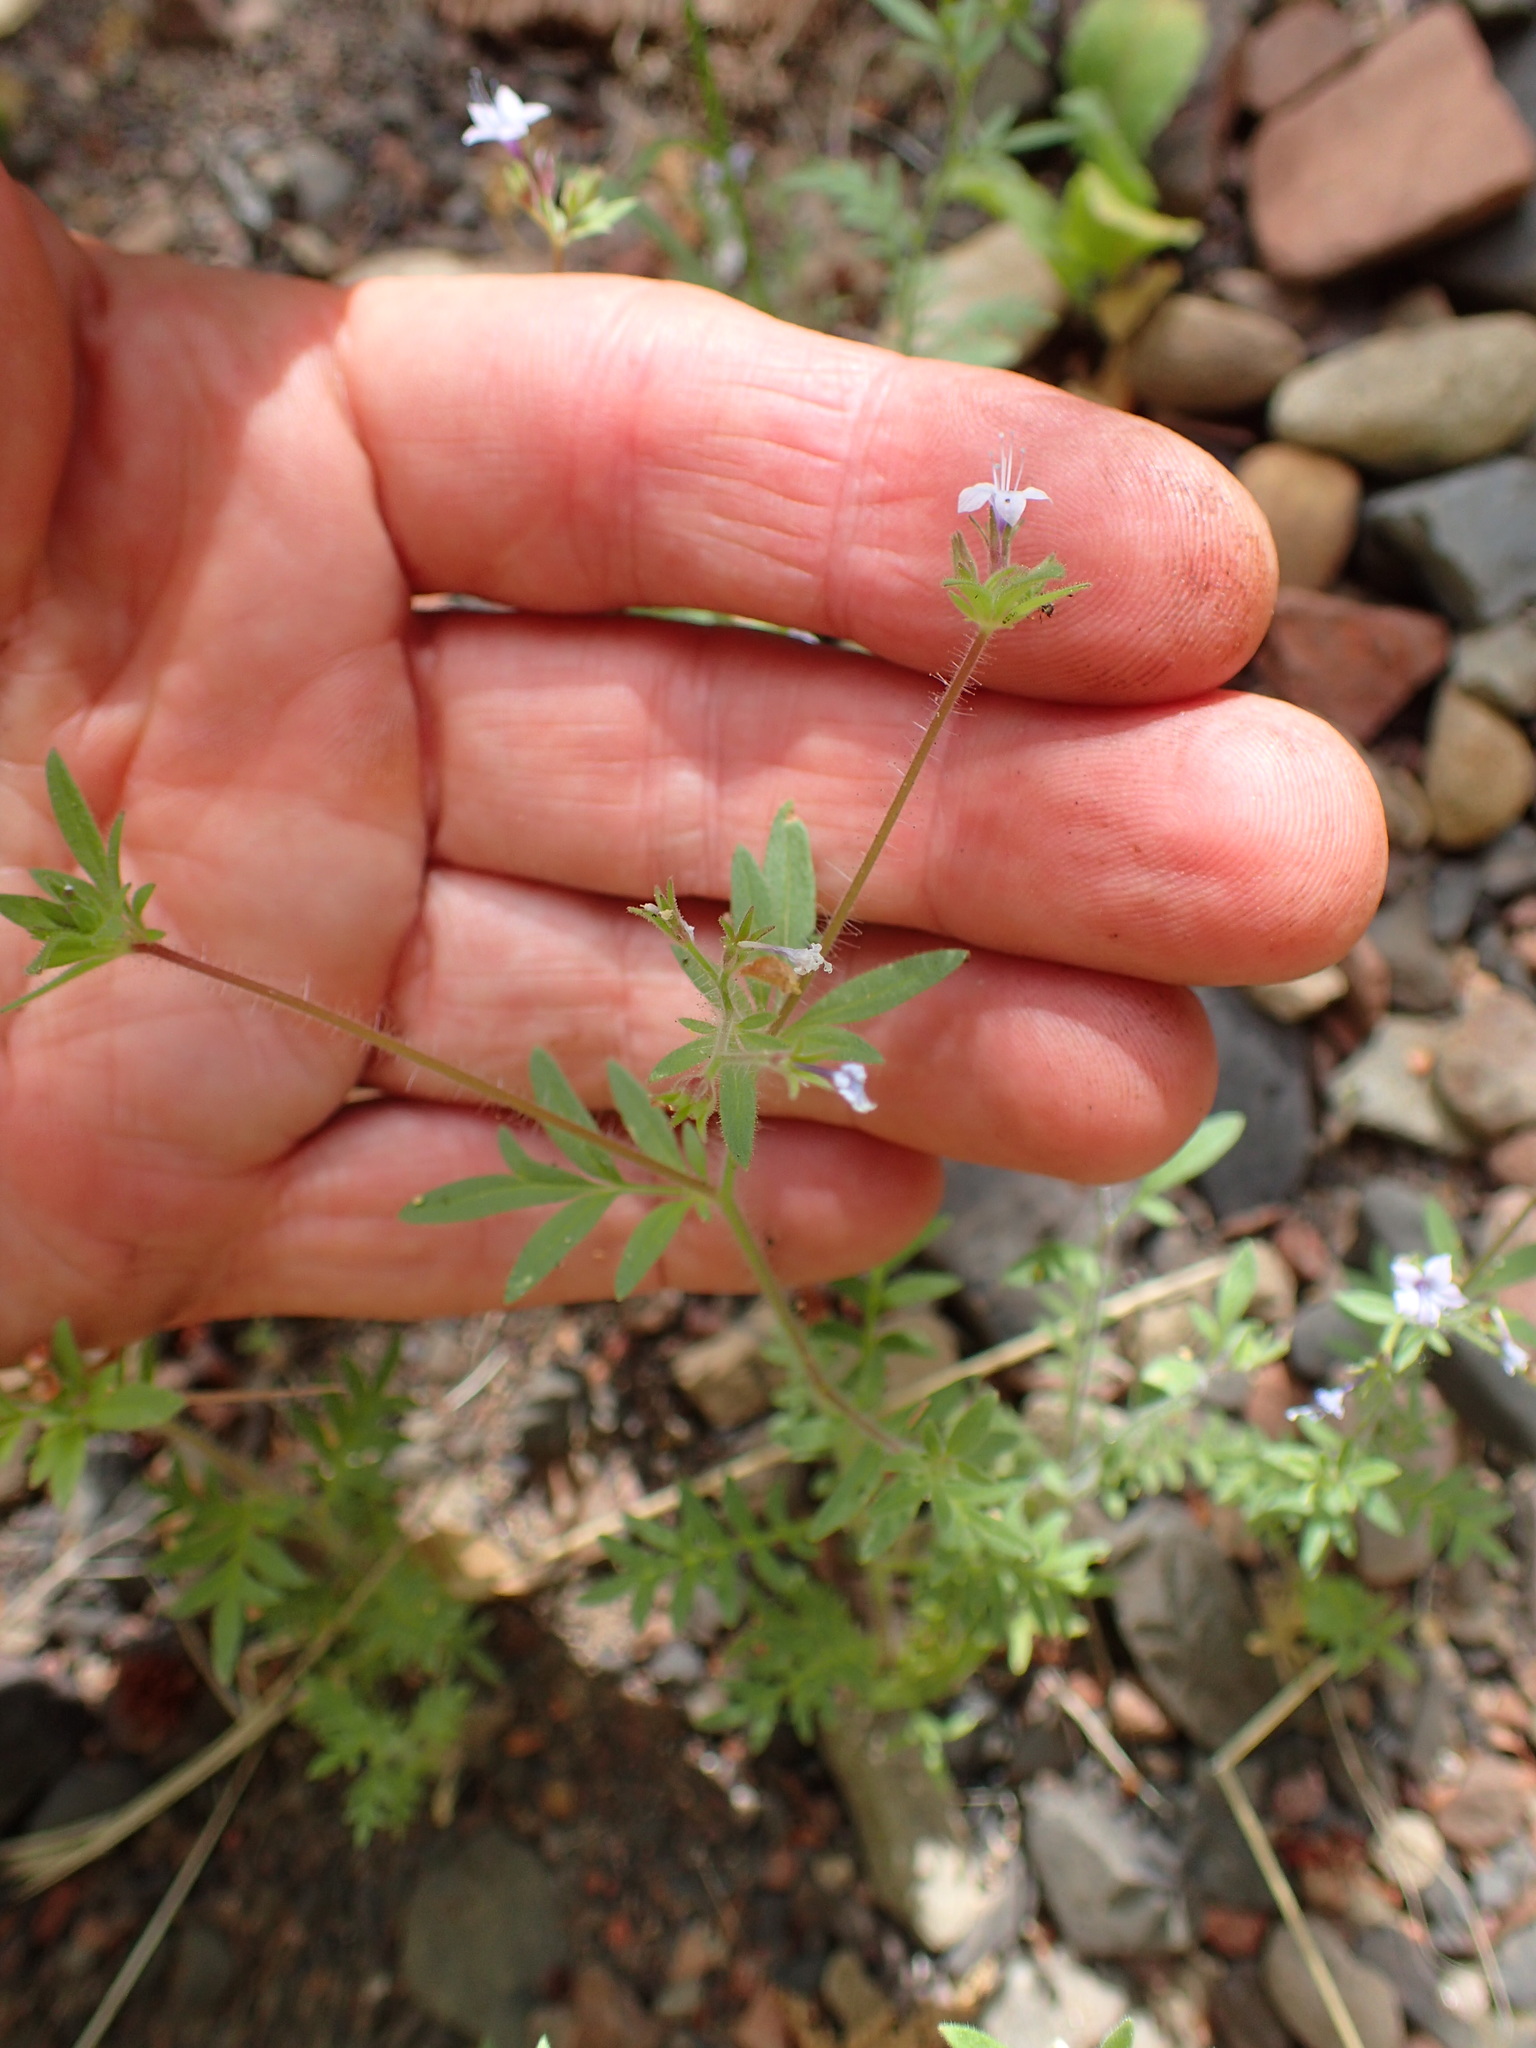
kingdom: Plantae
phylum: Tracheophyta
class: Magnoliopsida
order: Ericales
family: Polemoniaceae
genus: Allophyllum
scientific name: Allophyllum glutinosum
